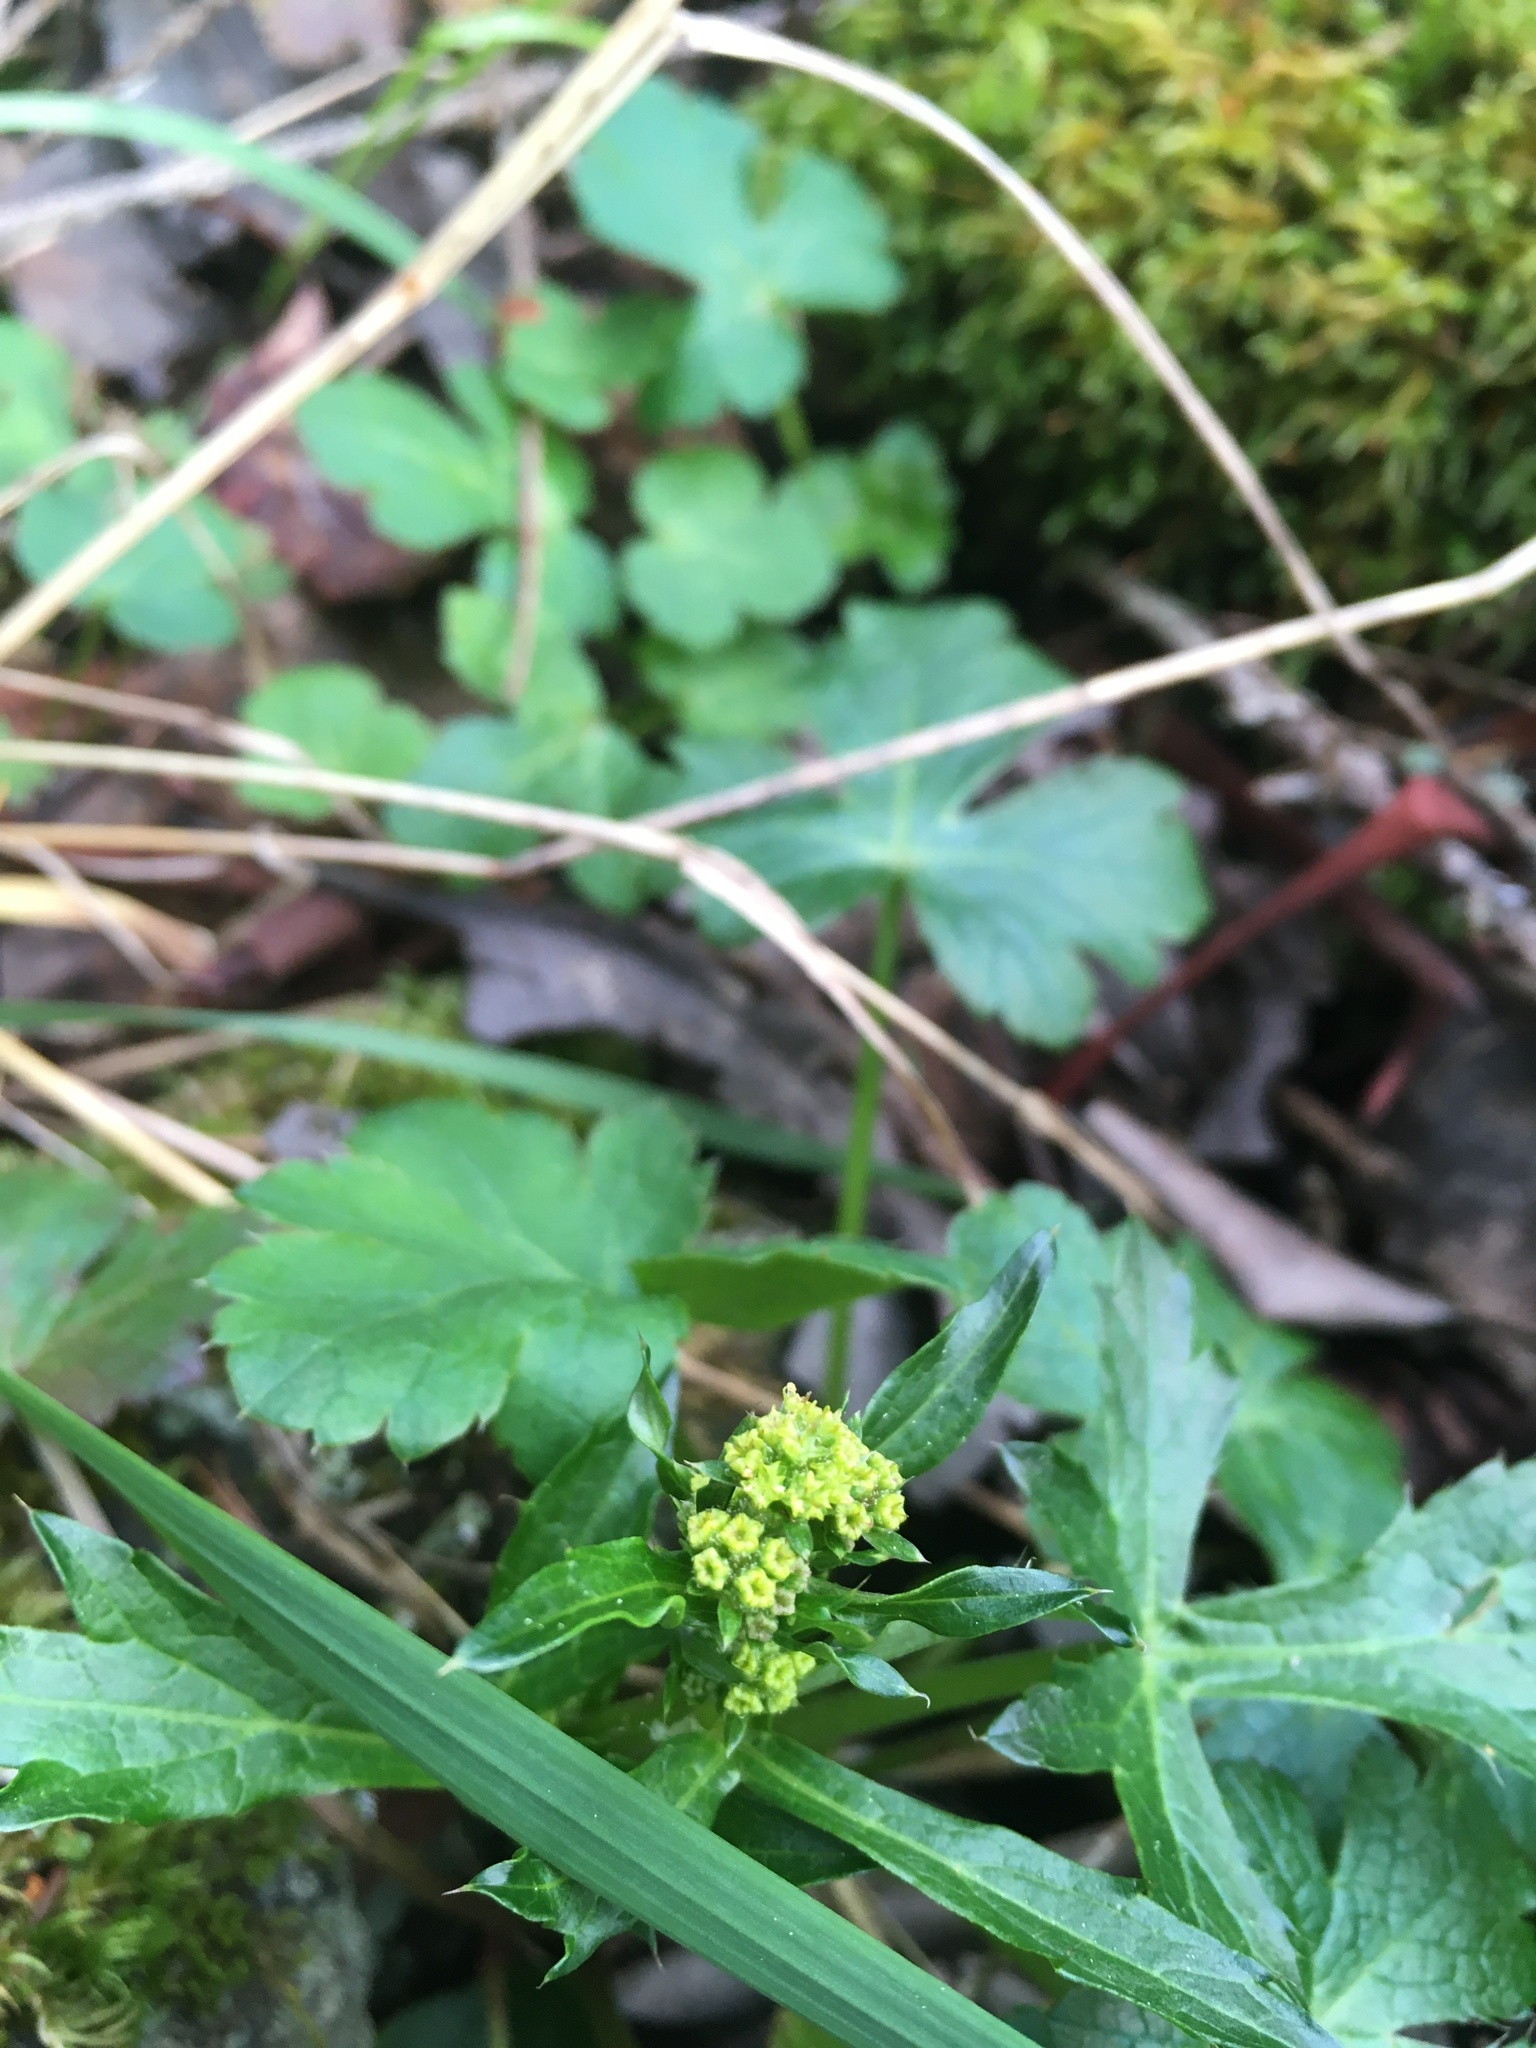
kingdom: Plantae
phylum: Tracheophyta
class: Magnoliopsida
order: Apiales
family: Apiaceae
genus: Sanicula
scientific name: Sanicula crassicaulis
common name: Western snakeroot
